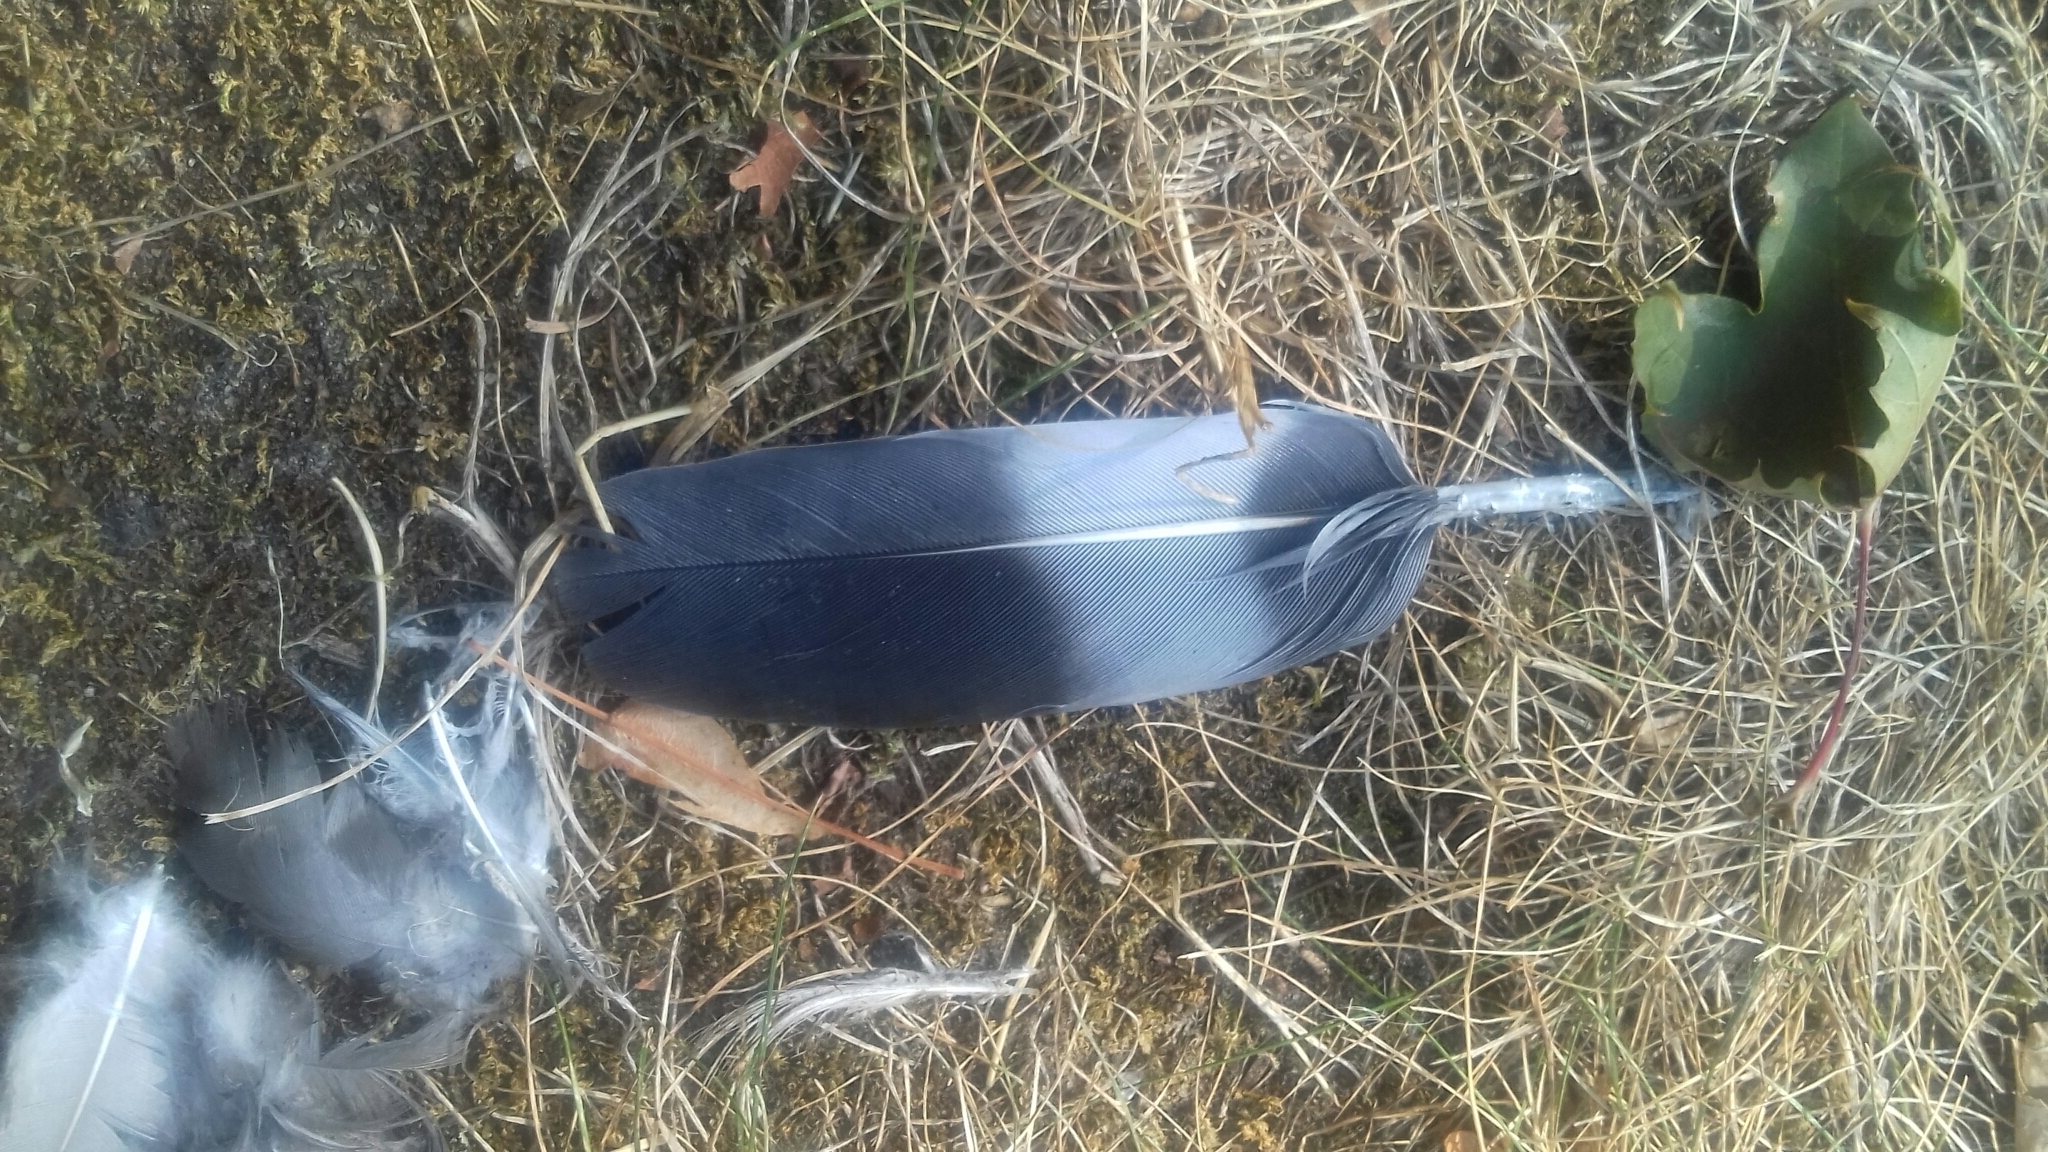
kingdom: Animalia
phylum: Chordata
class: Aves
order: Columbiformes
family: Columbidae
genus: Columba
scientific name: Columba palumbus
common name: Common wood pigeon
